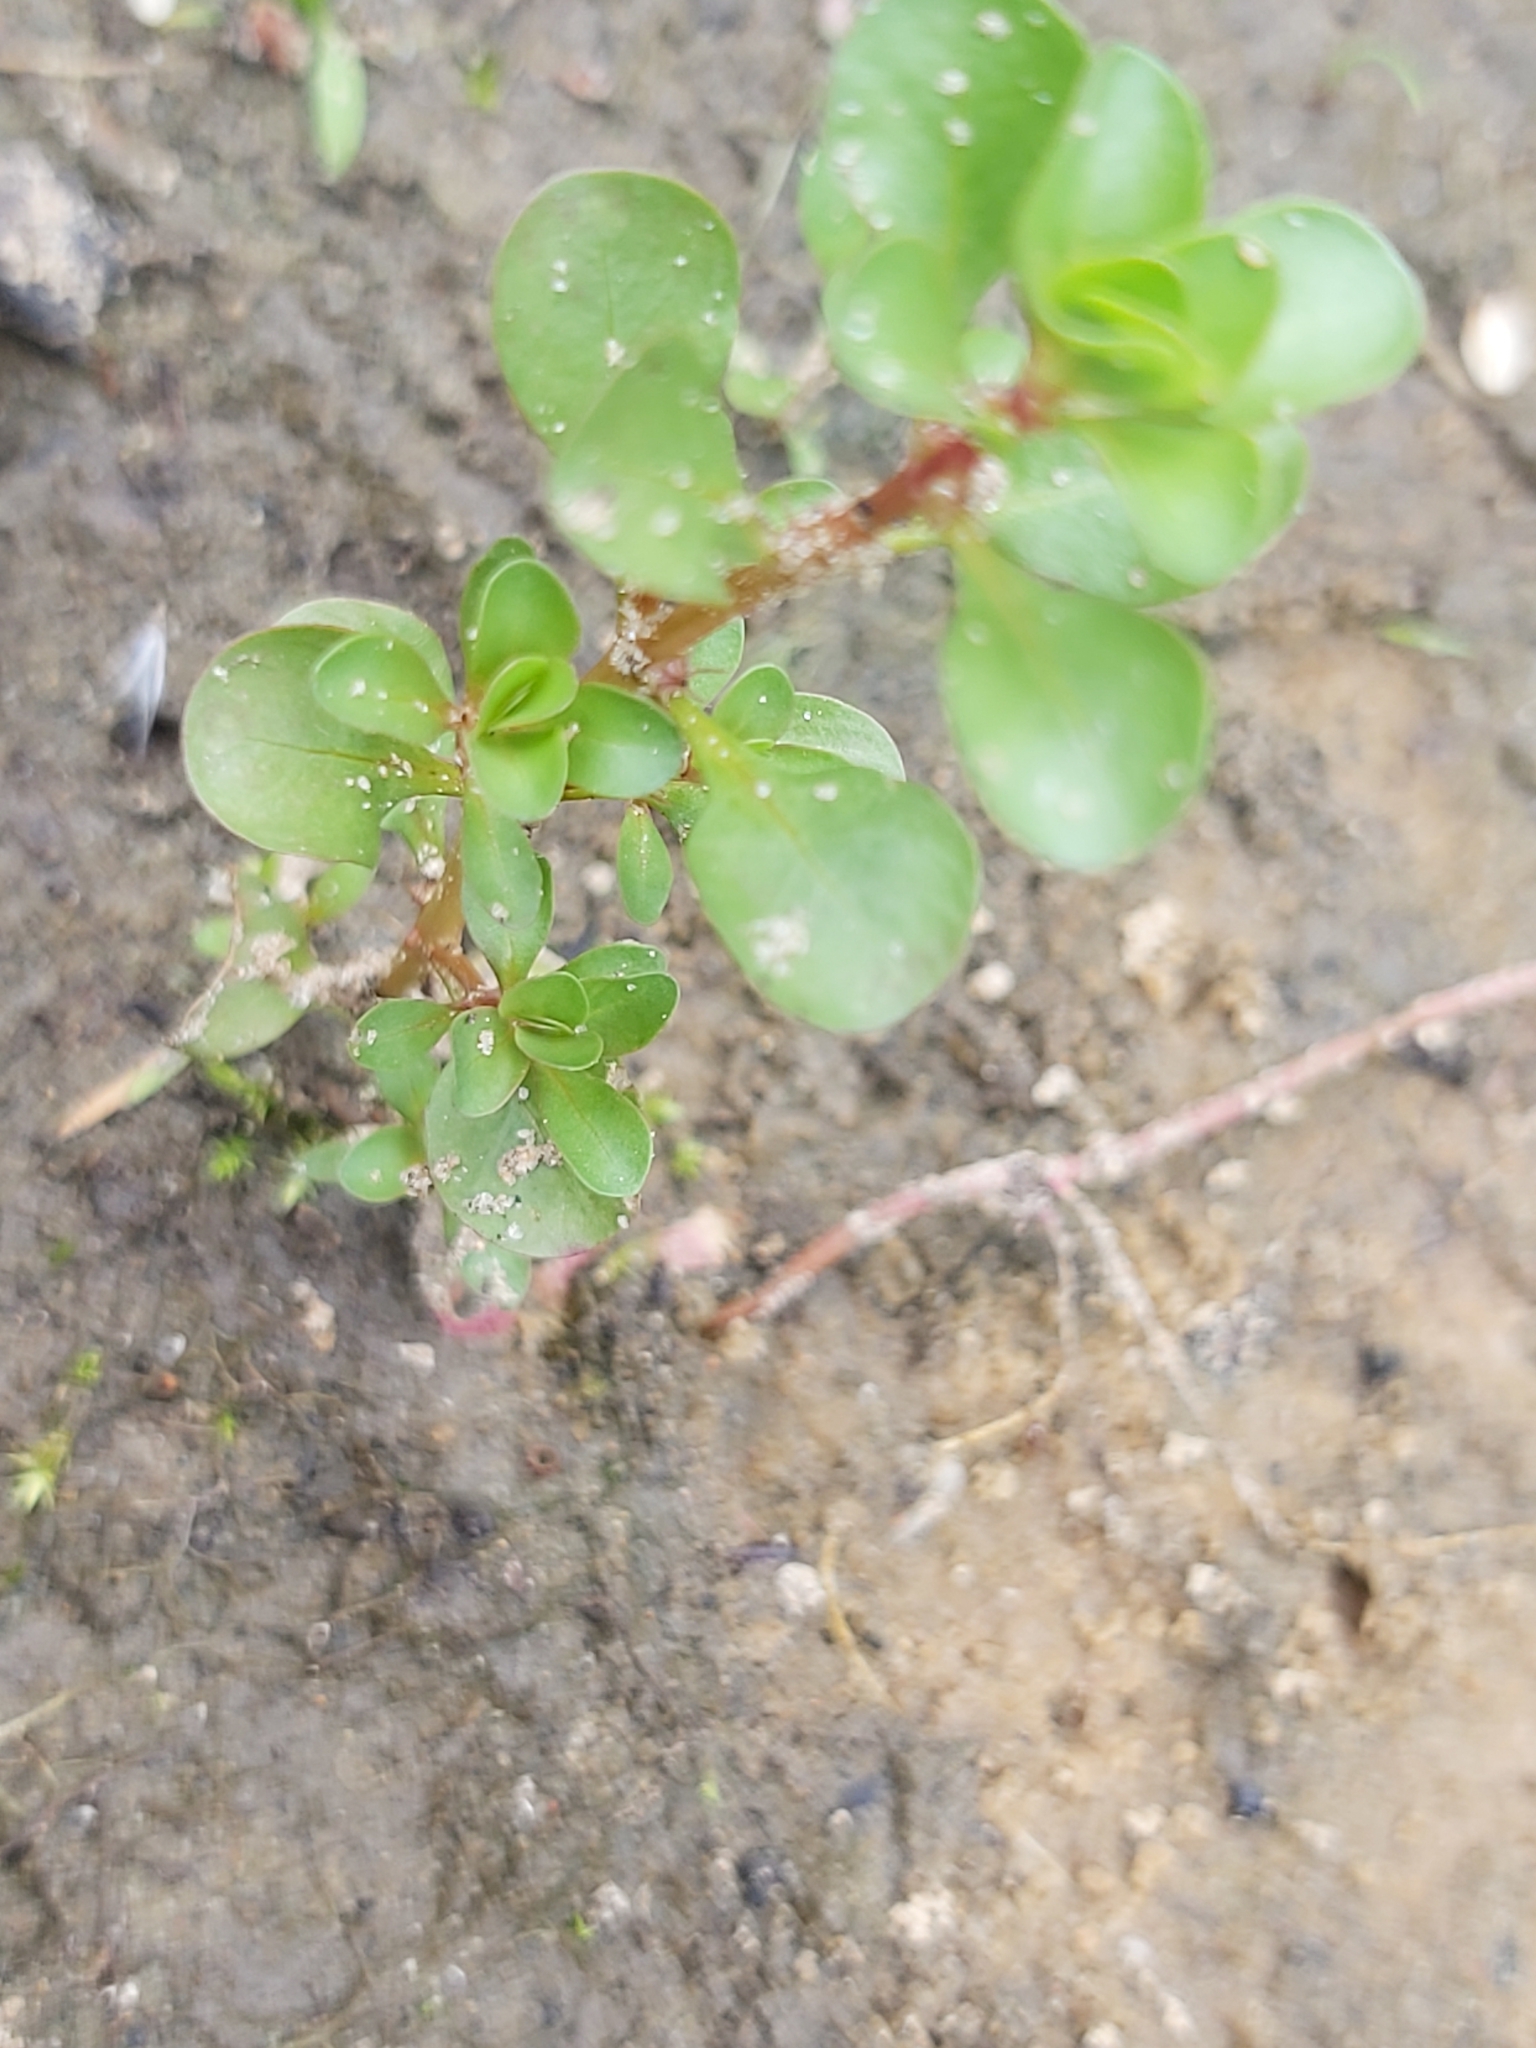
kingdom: Plantae
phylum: Tracheophyta
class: Magnoliopsida
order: Myrtales
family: Lythraceae
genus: Lythrum
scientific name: Lythrum portula
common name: Water purslane
